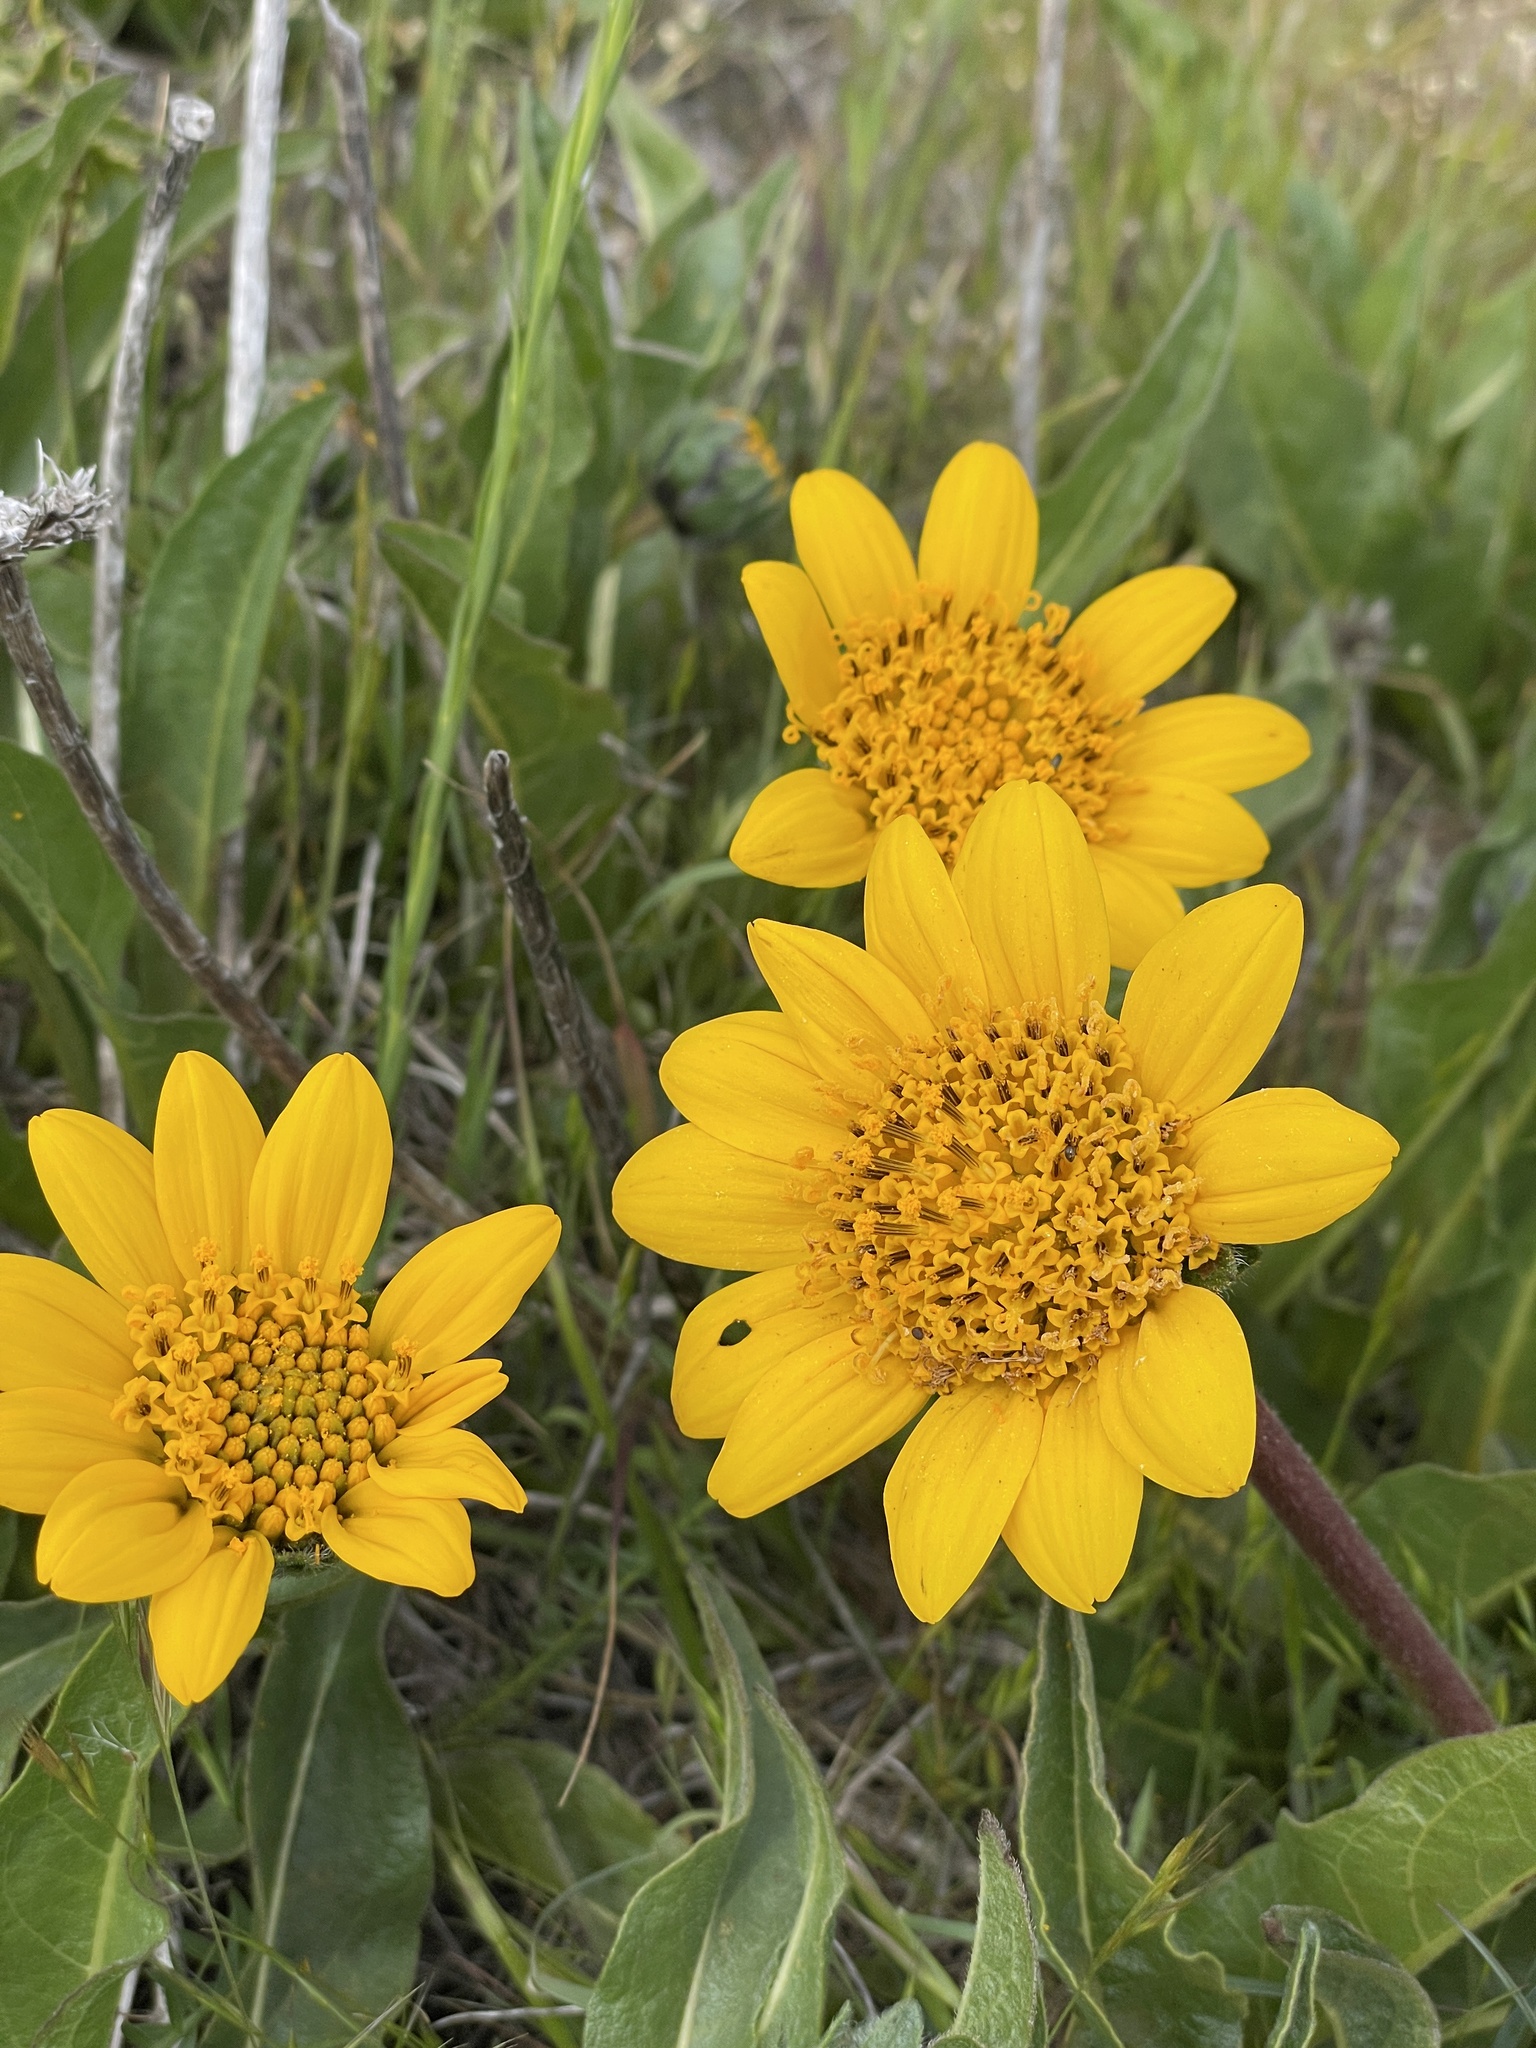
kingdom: Plantae
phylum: Tracheophyta
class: Magnoliopsida
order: Asterales
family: Asteraceae
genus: Wyethia
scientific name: Wyethia angustifolia
